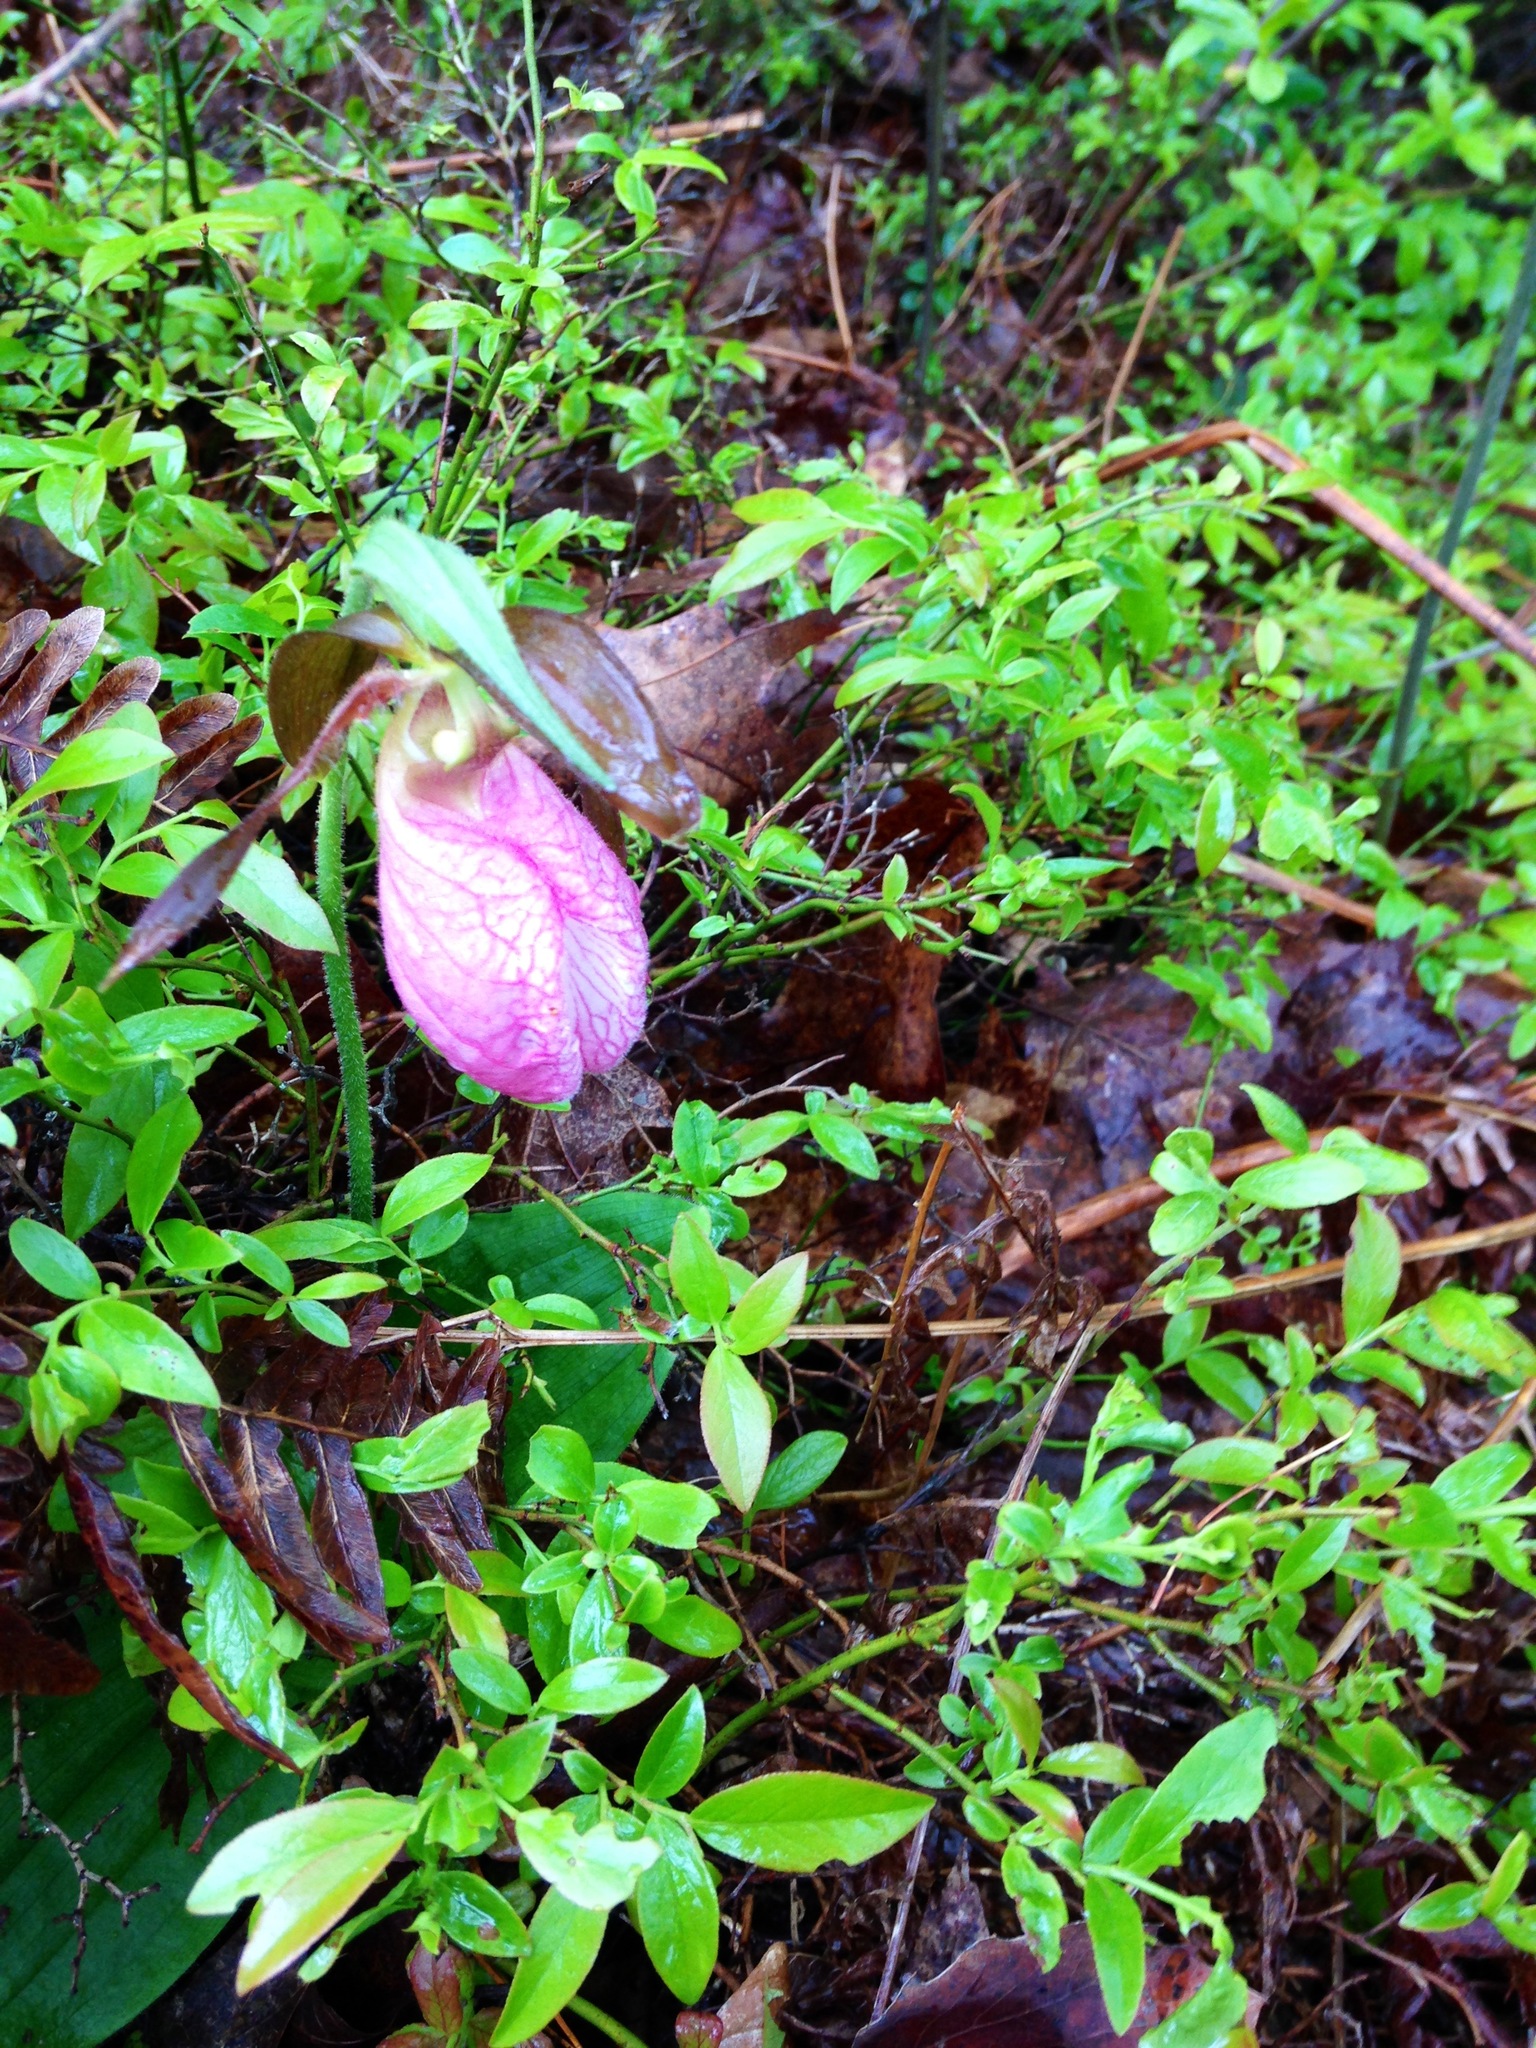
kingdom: Plantae
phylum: Tracheophyta
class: Liliopsida
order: Asparagales
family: Orchidaceae
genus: Cypripedium
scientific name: Cypripedium acaule
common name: Pink lady's-slipper
